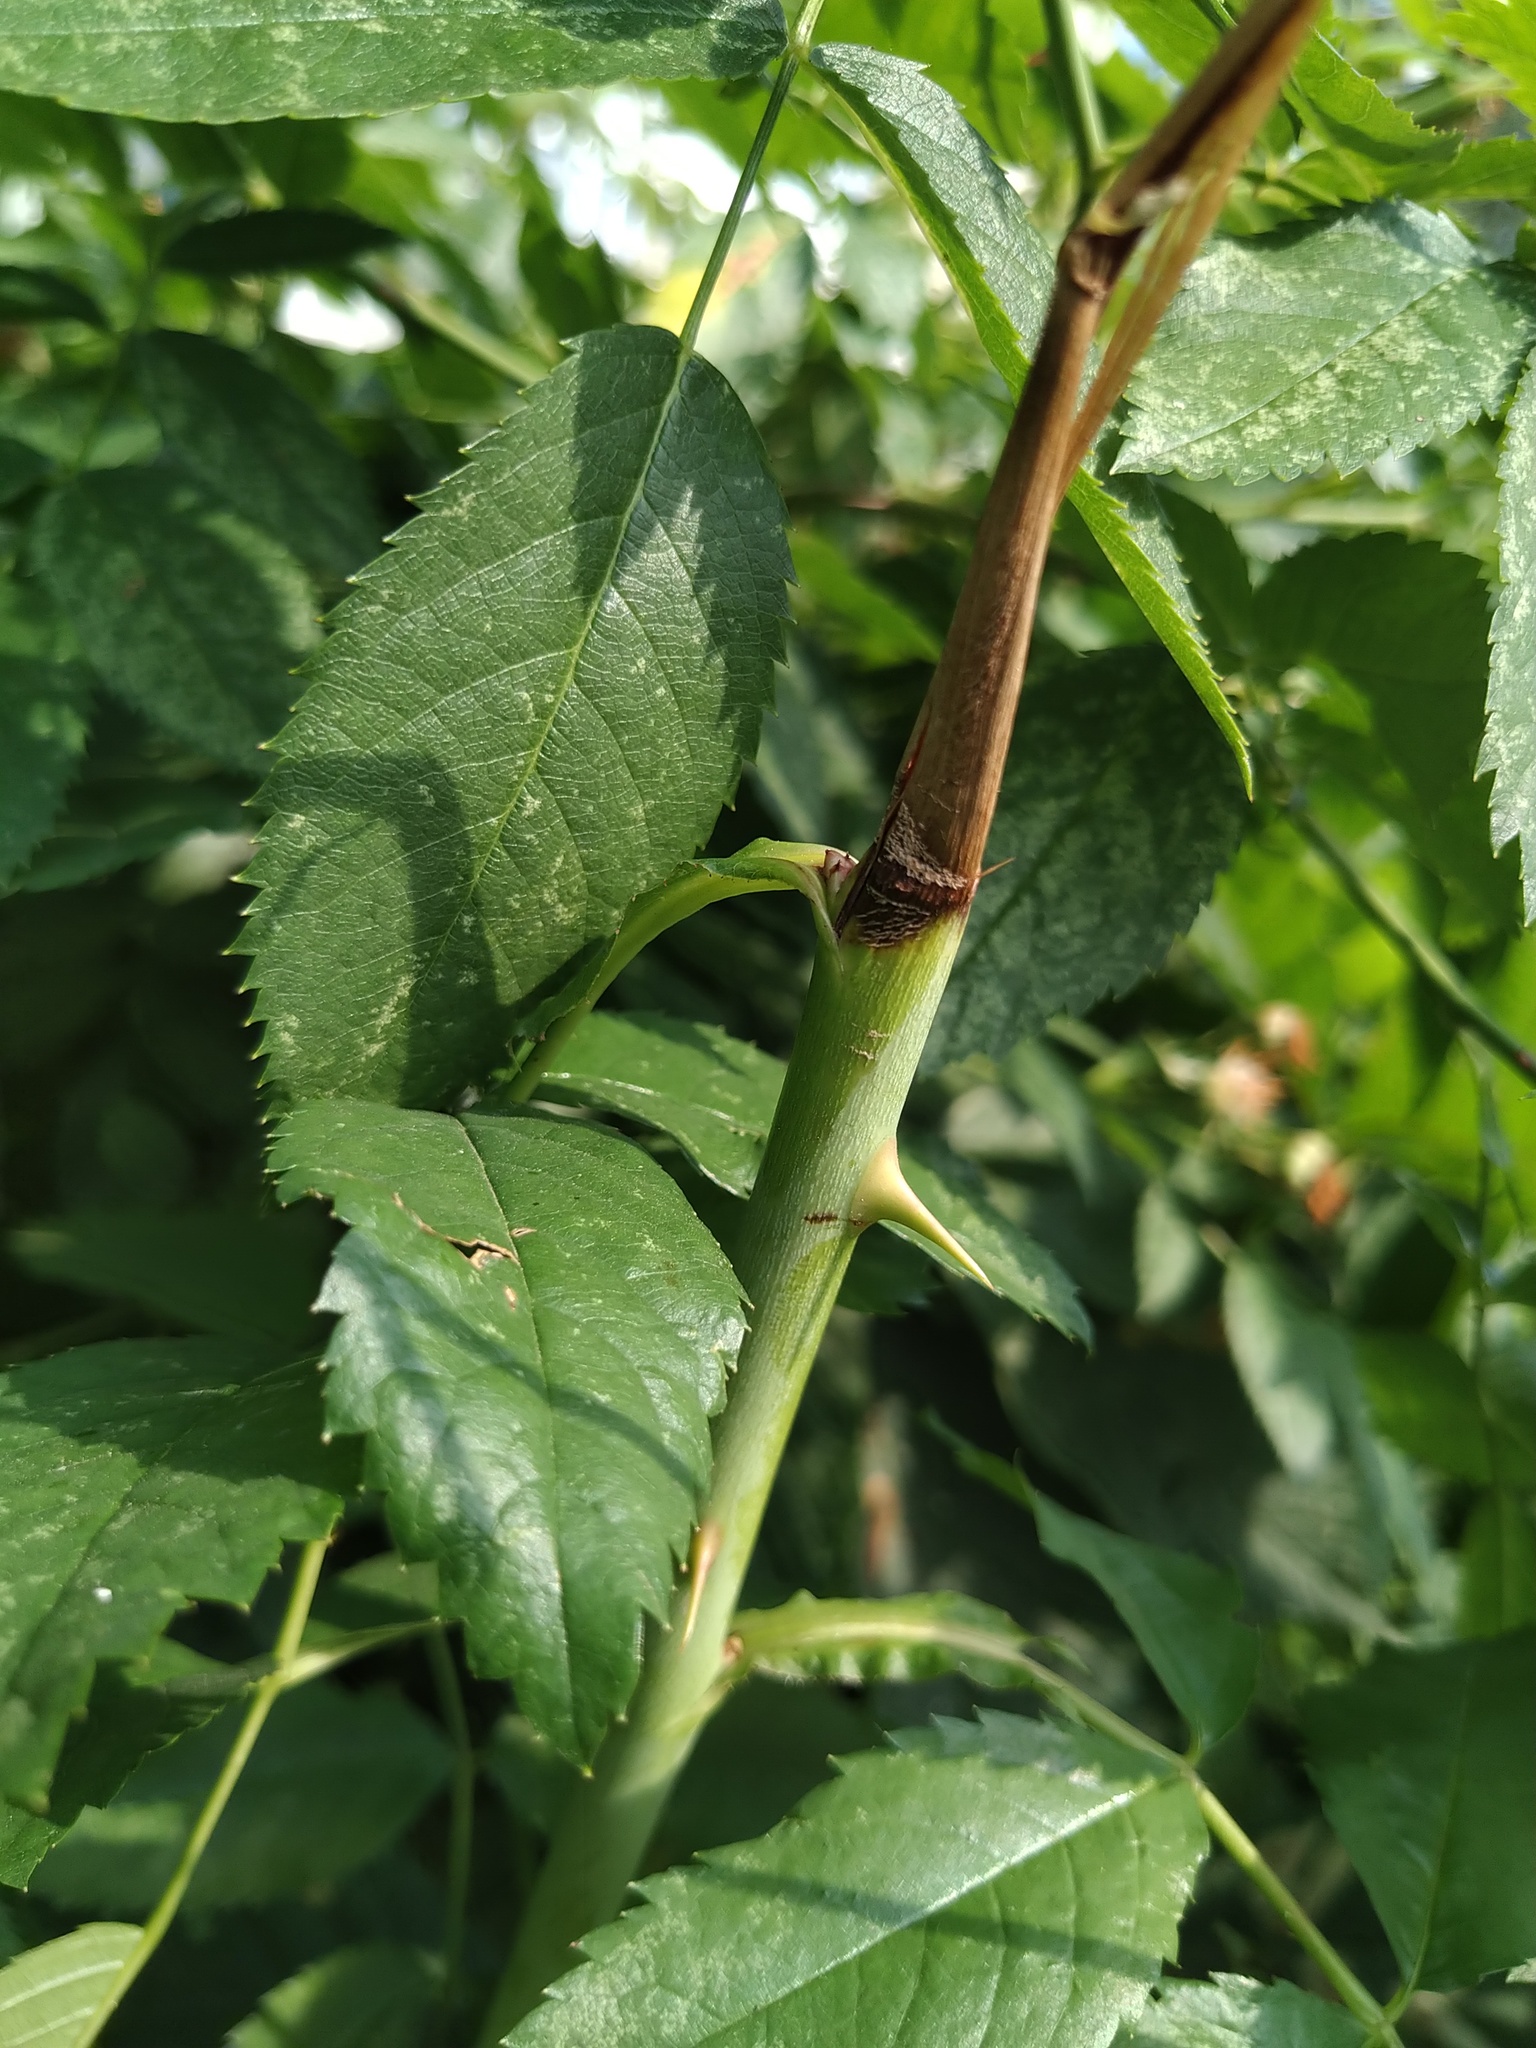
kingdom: Plantae
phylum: Tracheophyta
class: Magnoliopsida
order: Rosales
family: Rosaceae
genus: Rosa
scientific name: Rosa
